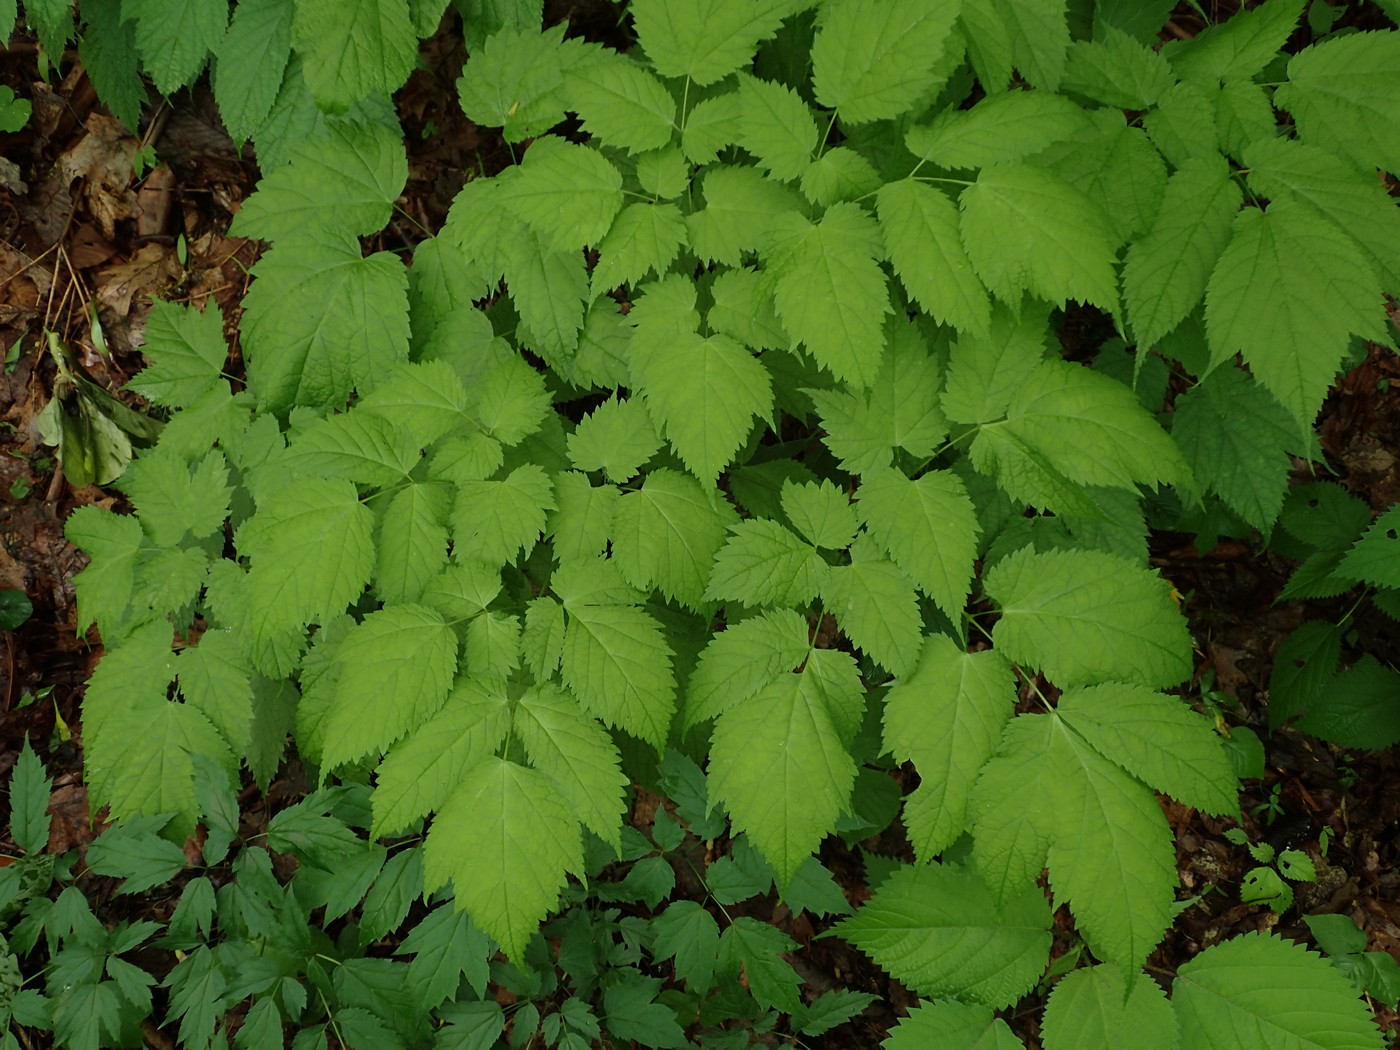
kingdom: Plantae
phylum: Tracheophyta
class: Magnoliopsida
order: Saxifragales
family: Saxifragaceae
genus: Astilbe
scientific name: Astilbe biternata
